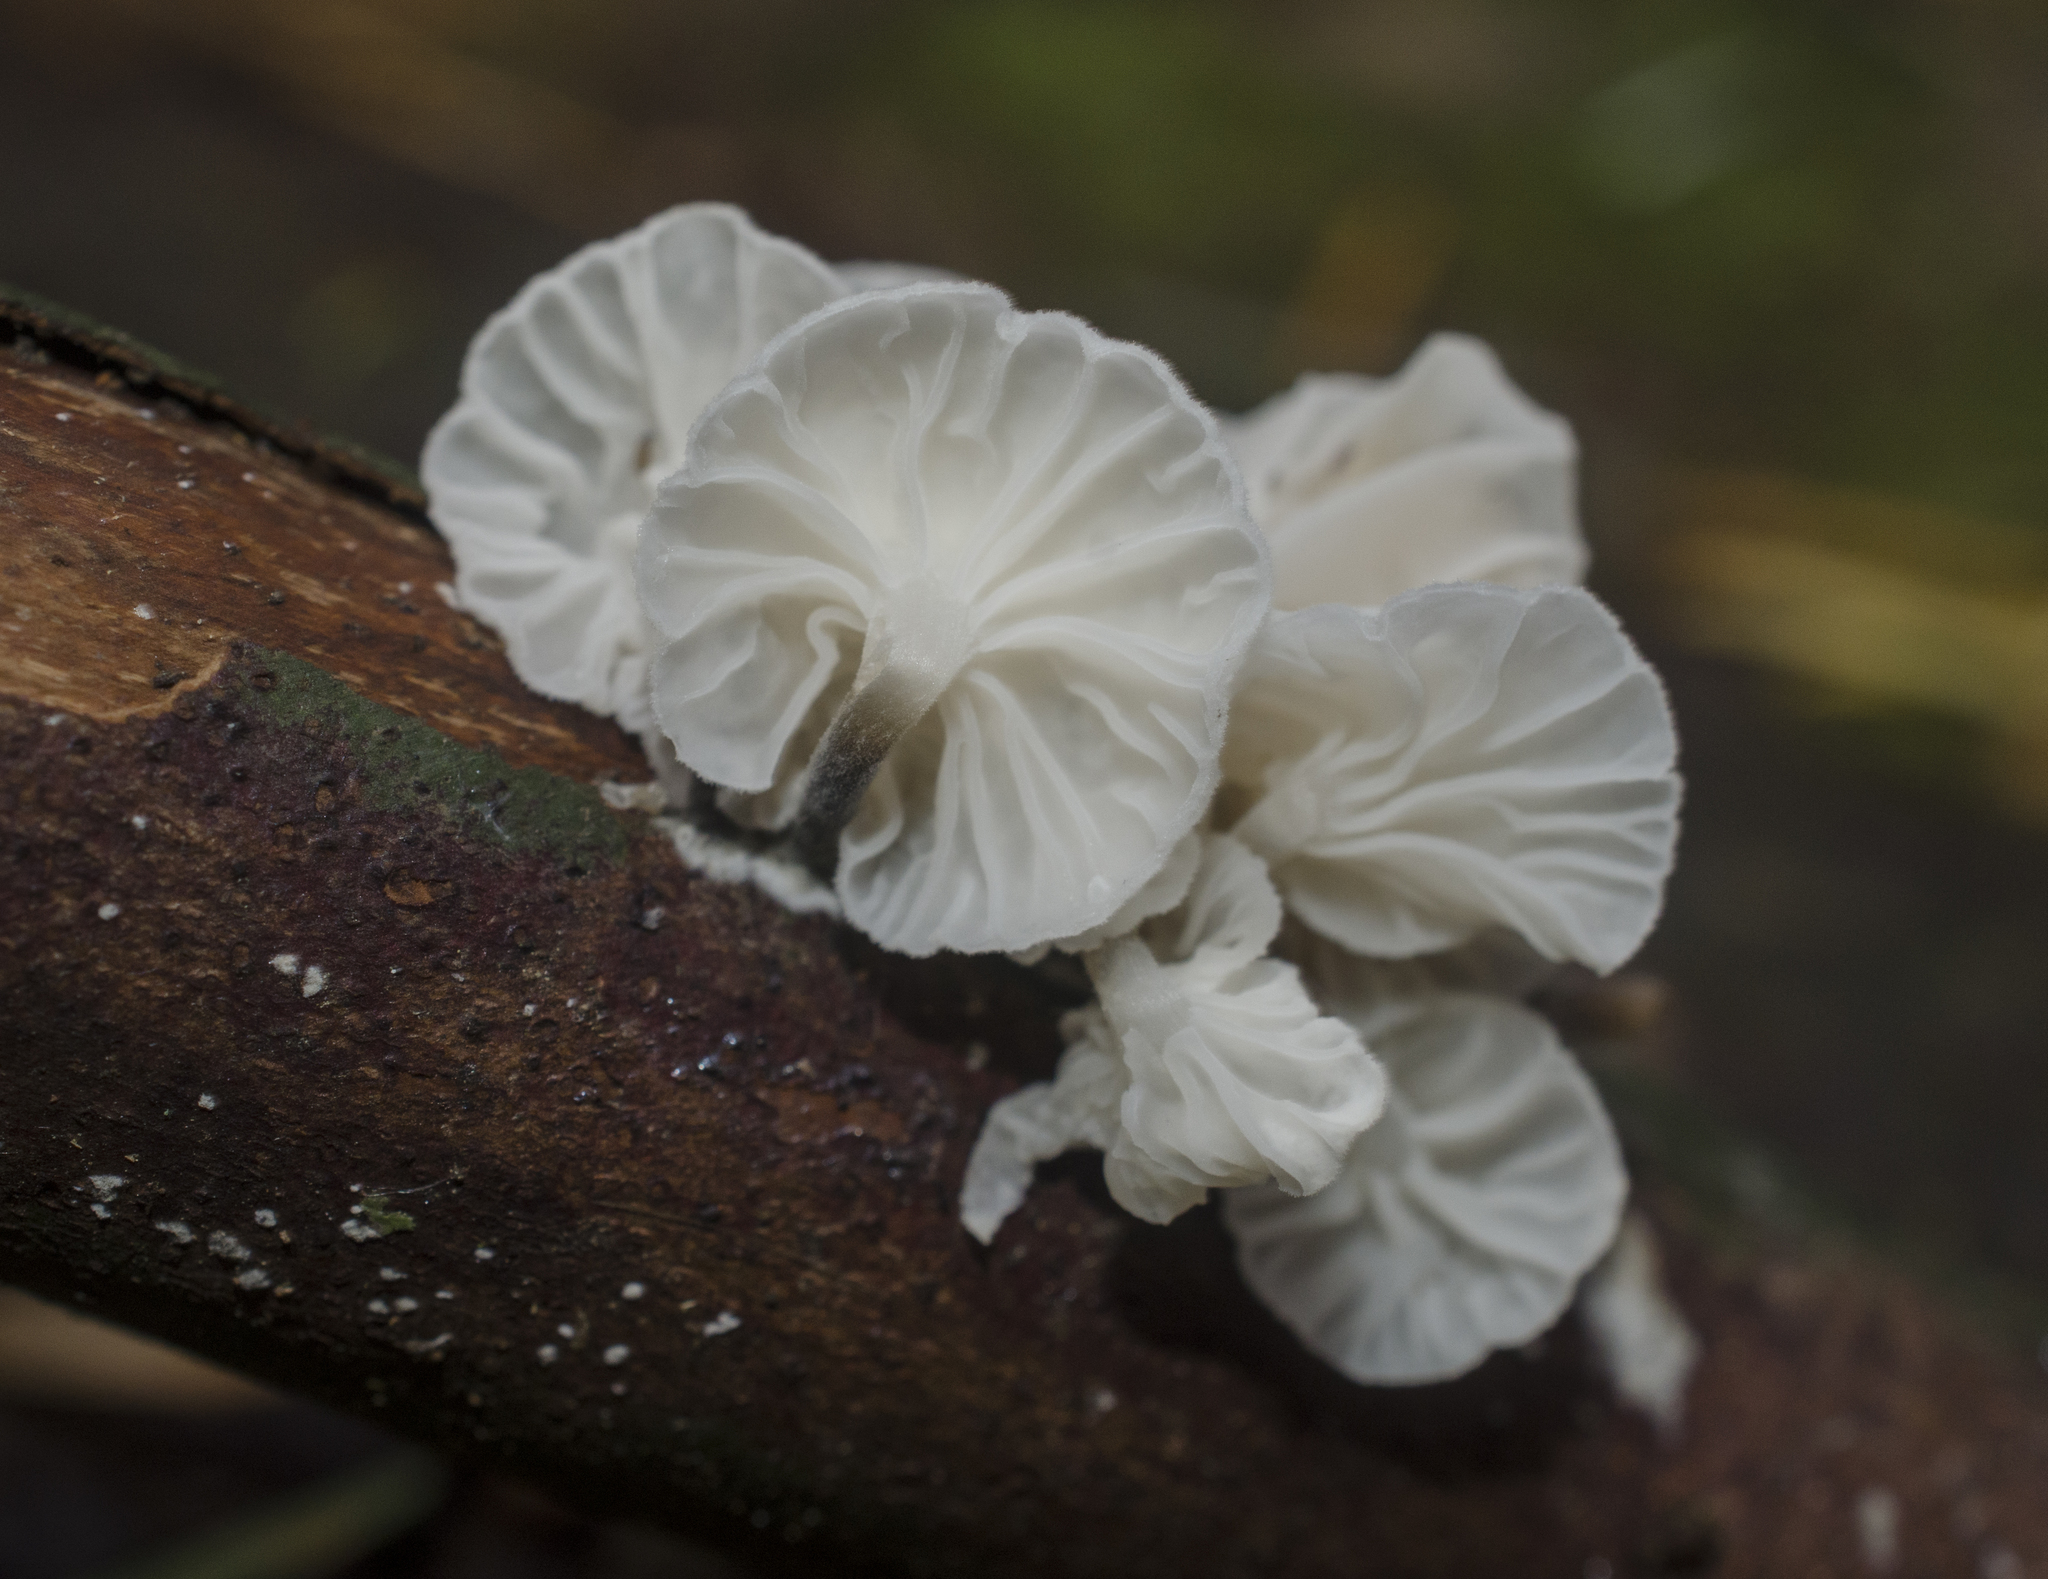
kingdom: Fungi
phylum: Basidiomycota
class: Agaricomycetes
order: Agaricales
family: Omphalotaceae
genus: Marasmiellus
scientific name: Marasmiellus candidus
